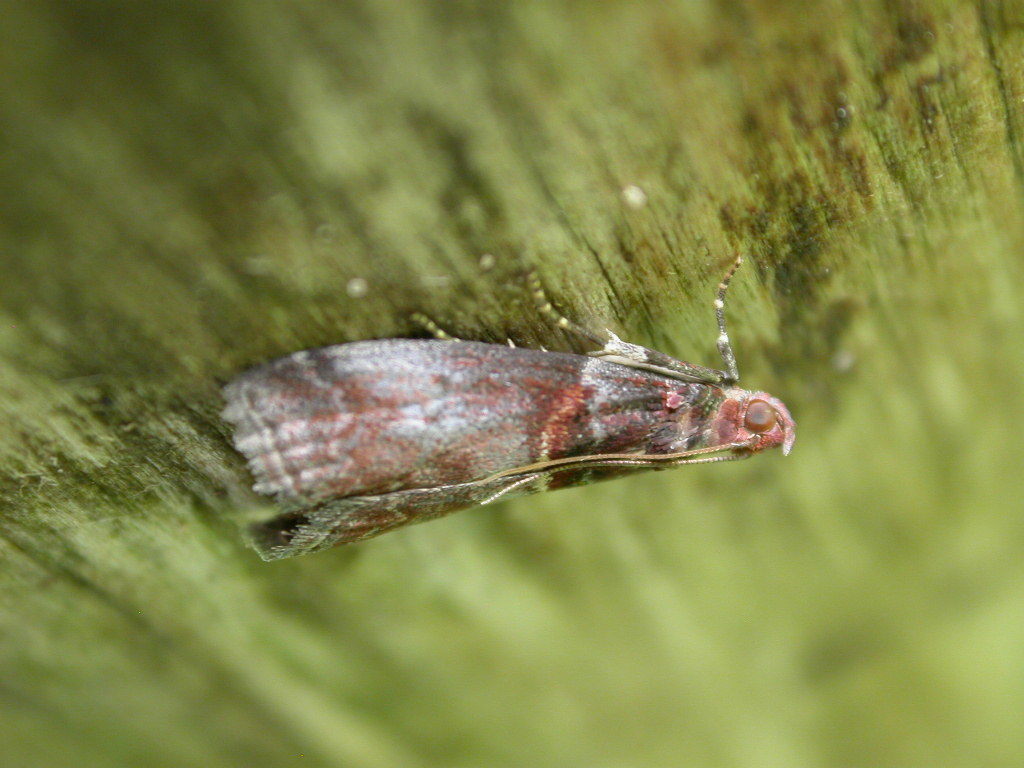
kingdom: Animalia
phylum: Arthropoda
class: Insecta
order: Lepidoptera
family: Pyralidae
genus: Acrobasis
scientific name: Acrobasis advenella
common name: Grey knot-horn
